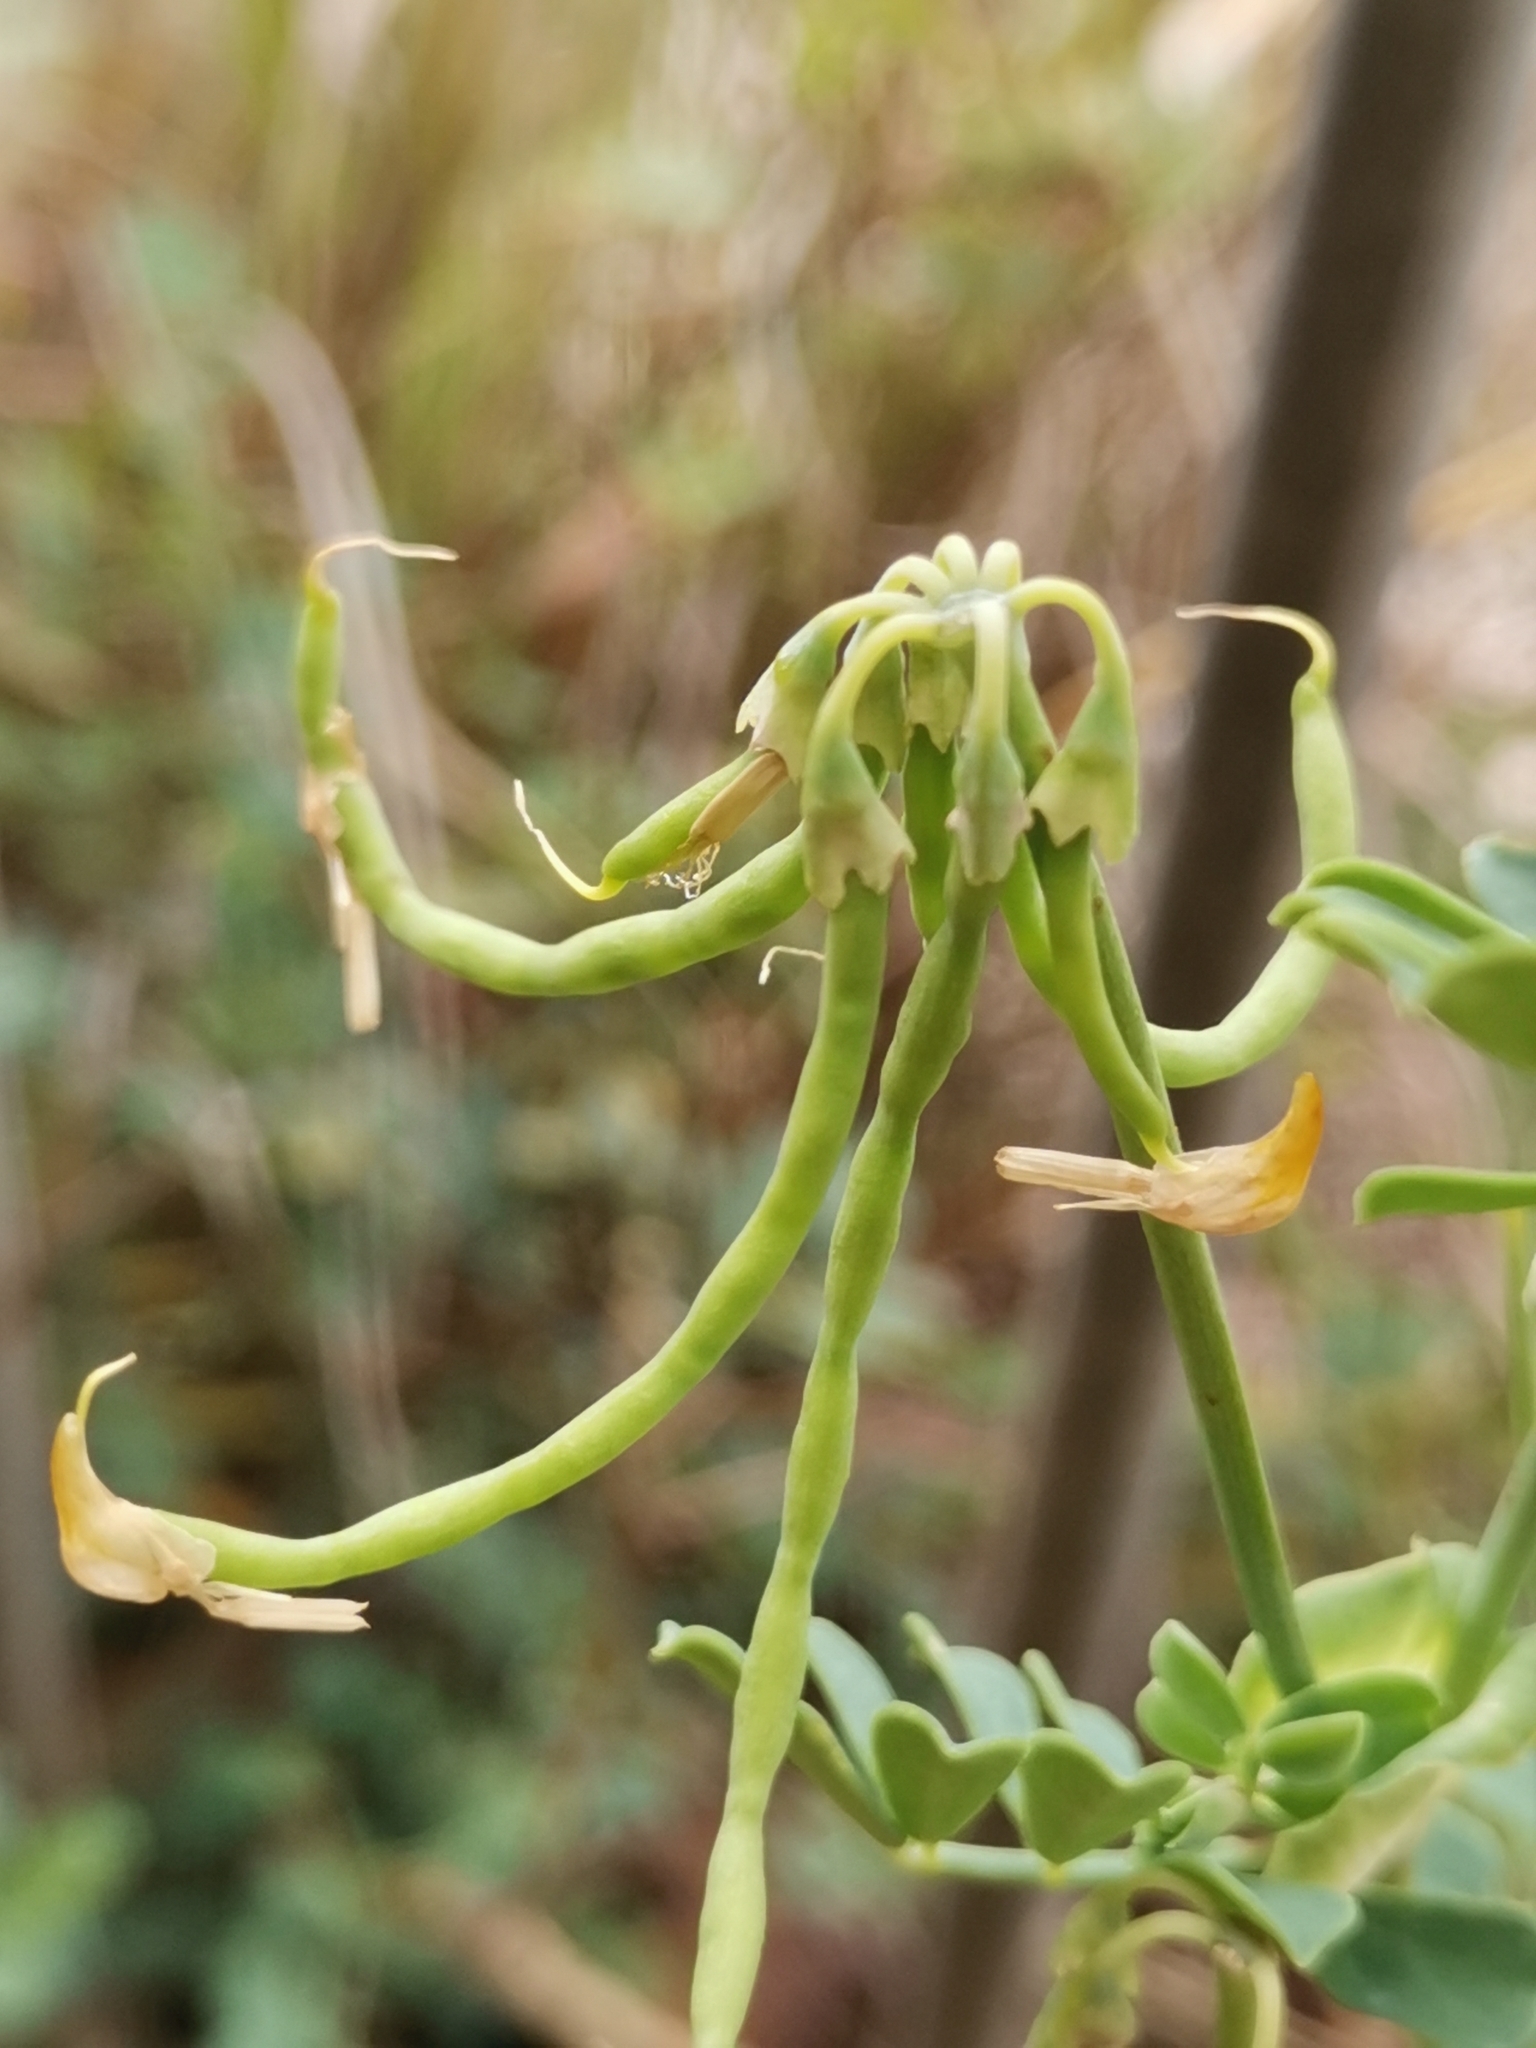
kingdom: Plantae
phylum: Tracheophyta
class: Magnoliopsida
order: Fabales
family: Fabaceae
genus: Coronilla
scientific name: Coronilla valentina
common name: Shrubby scorpion-vetch
